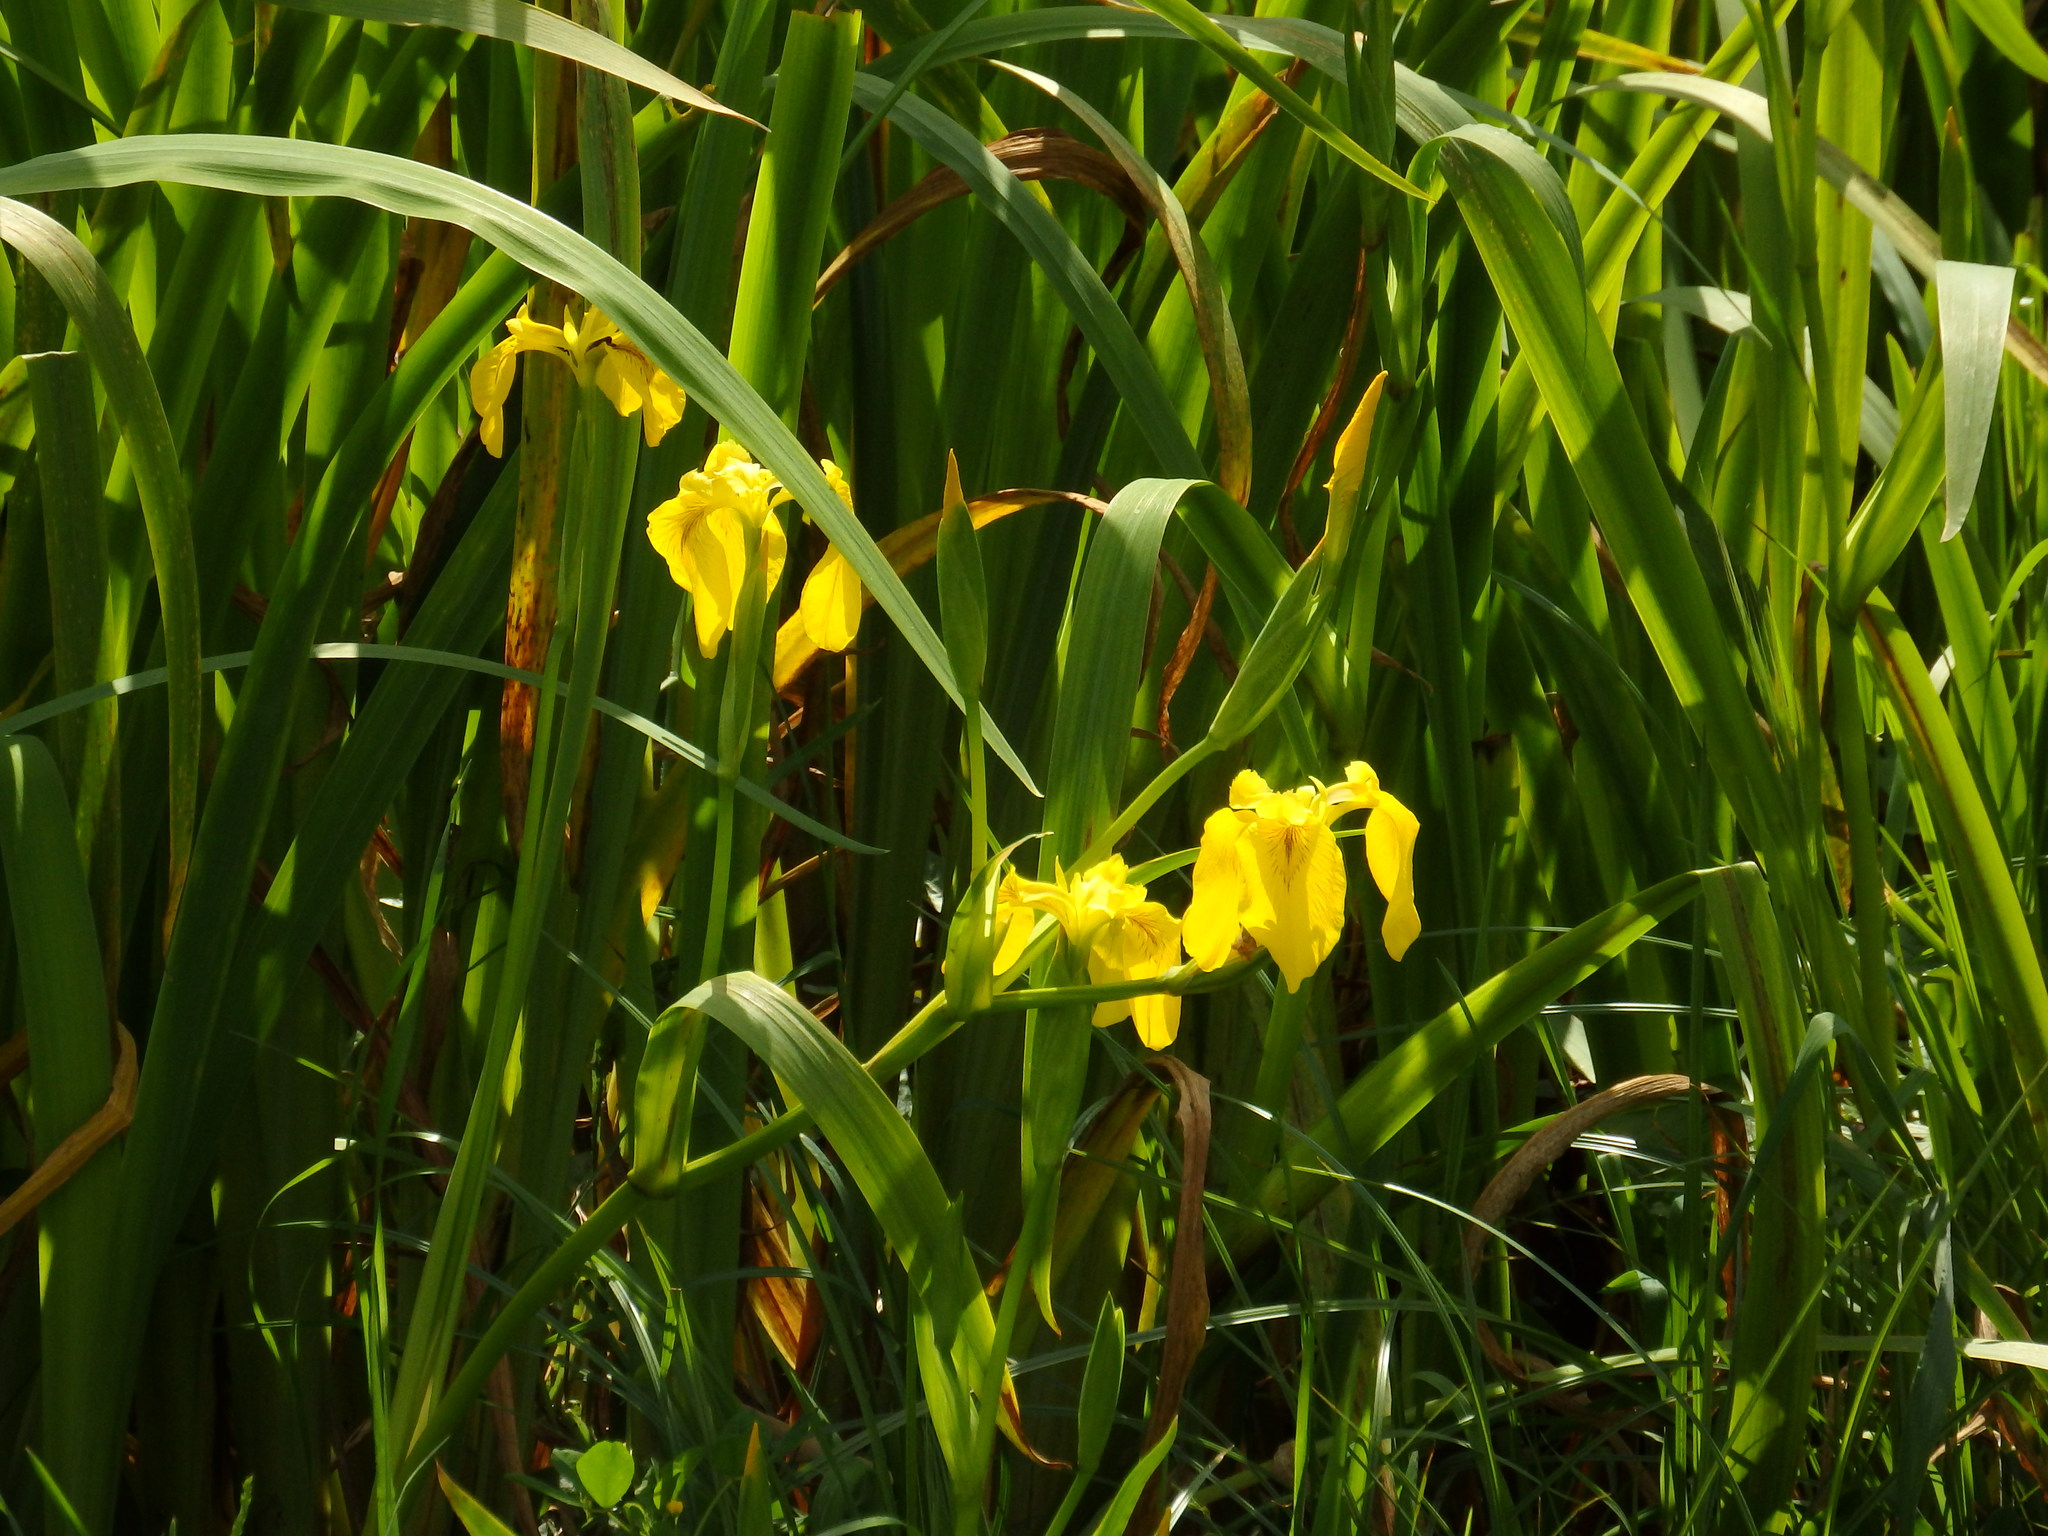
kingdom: Plantae
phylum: Tracheophyta
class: Liliopsida
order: Asparagales
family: Iridaceae
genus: Iris
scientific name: Iris pseudacorus
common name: Yellow flag
